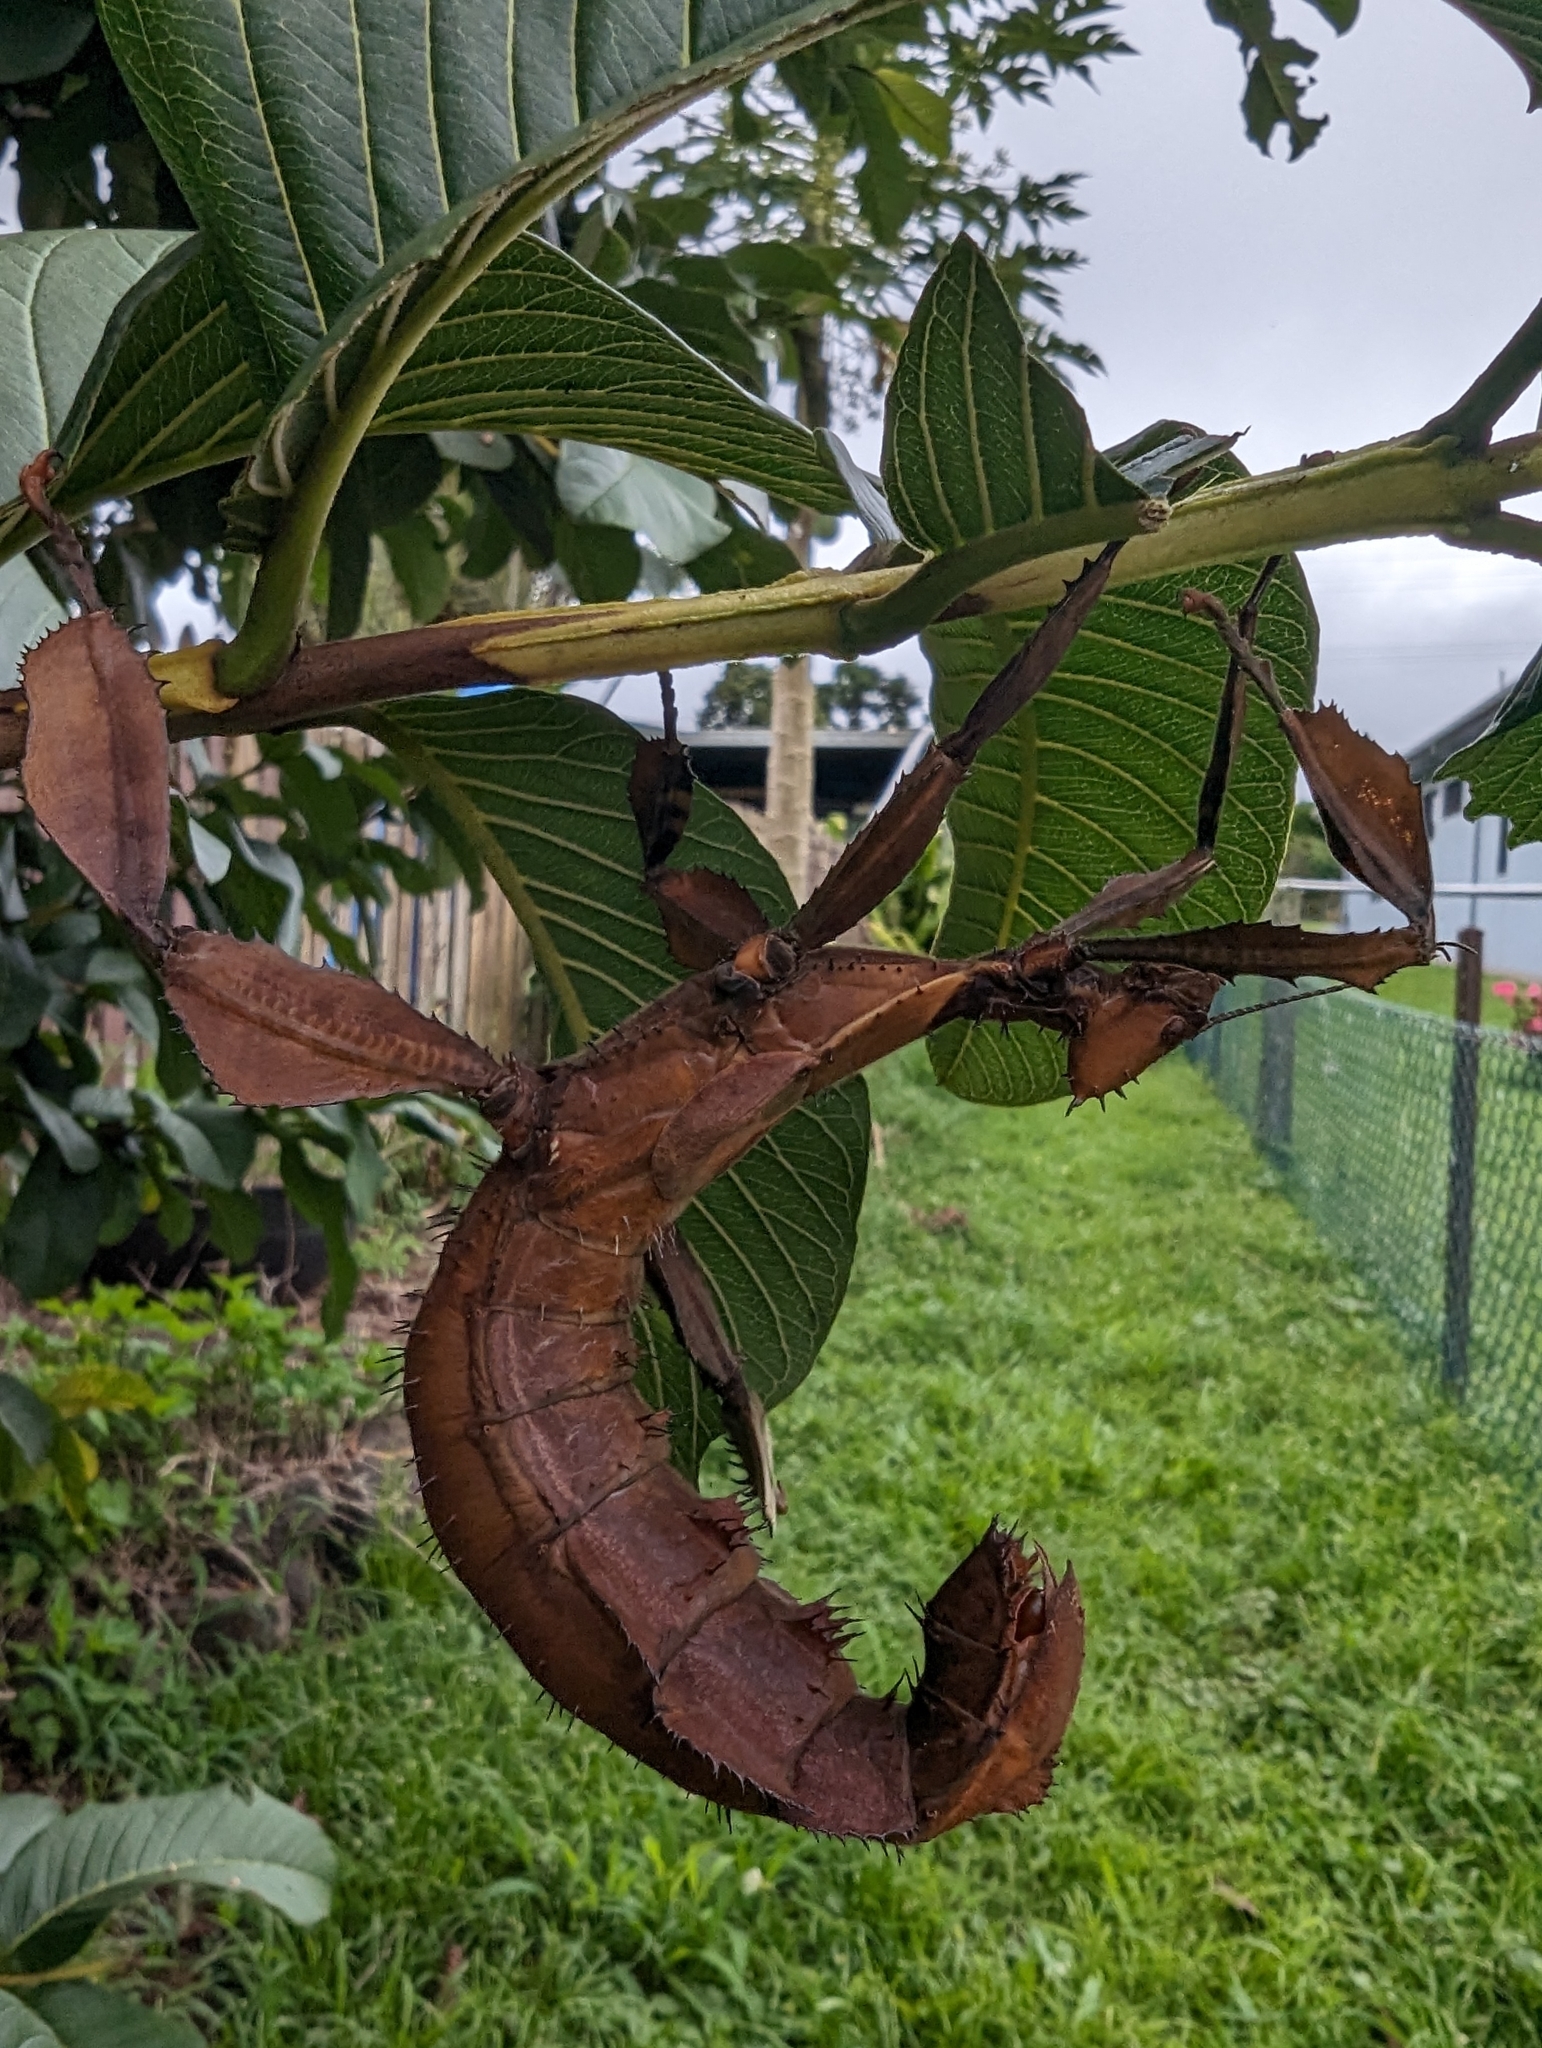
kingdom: Animalia
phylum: Arthropoda
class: Insecta
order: Phasmida
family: Phasmatidae
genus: Extatosoma
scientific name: Extatosoma tiaratum
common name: Macleay's spectre
